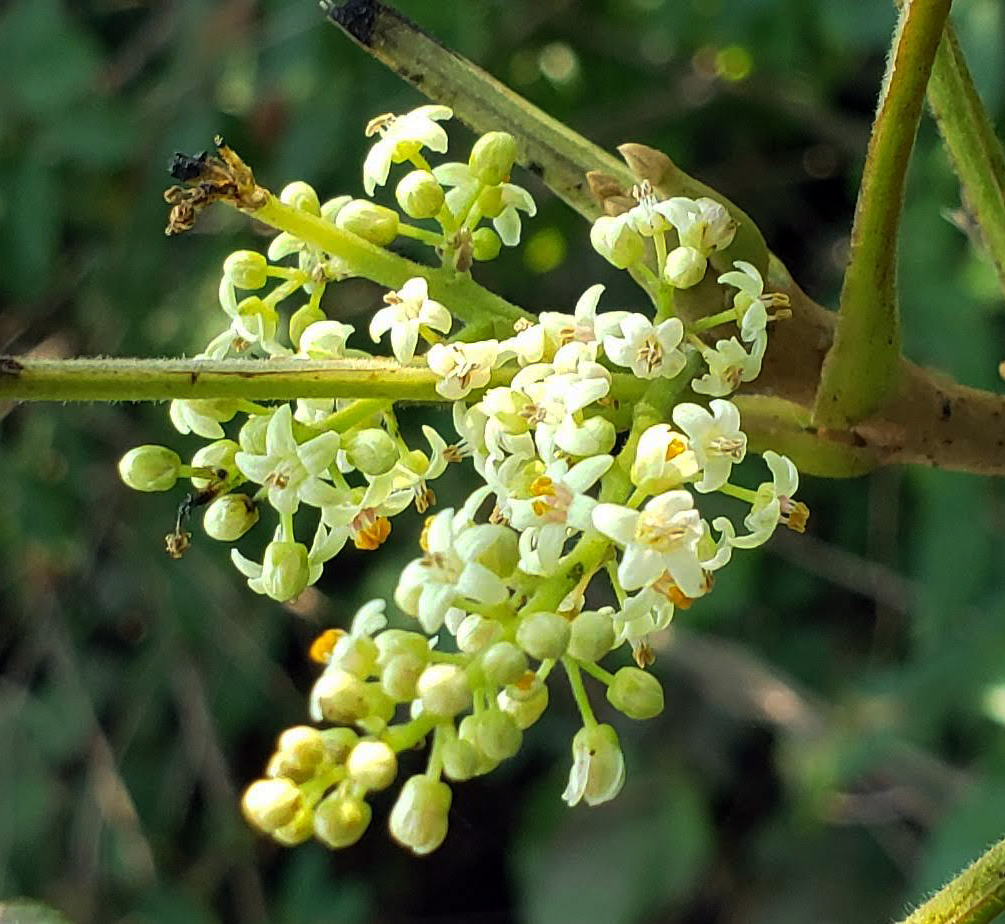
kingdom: Plantae
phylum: Tracheophyta
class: Magnoliopsida
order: Sapindales
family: Anacardiaceae
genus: Toxicodendron
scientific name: Toxicodendron radicans
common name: Poison ivy
